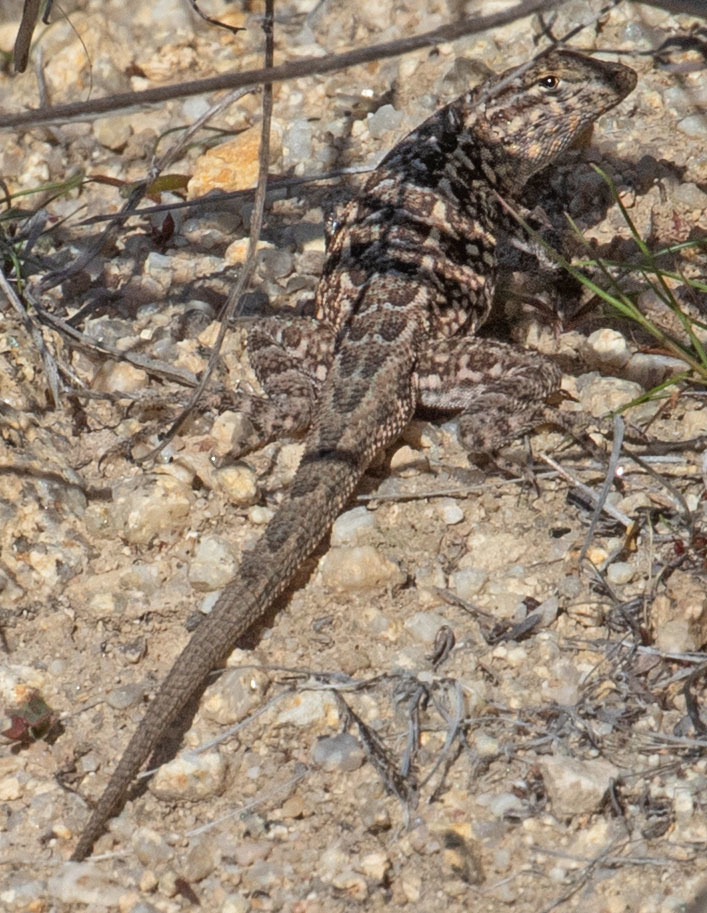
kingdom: Animalia
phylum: Chordata
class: Squamata
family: Phrynosomatidae
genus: Uta
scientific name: Uta stansburiana
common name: Side-blotched lizard
